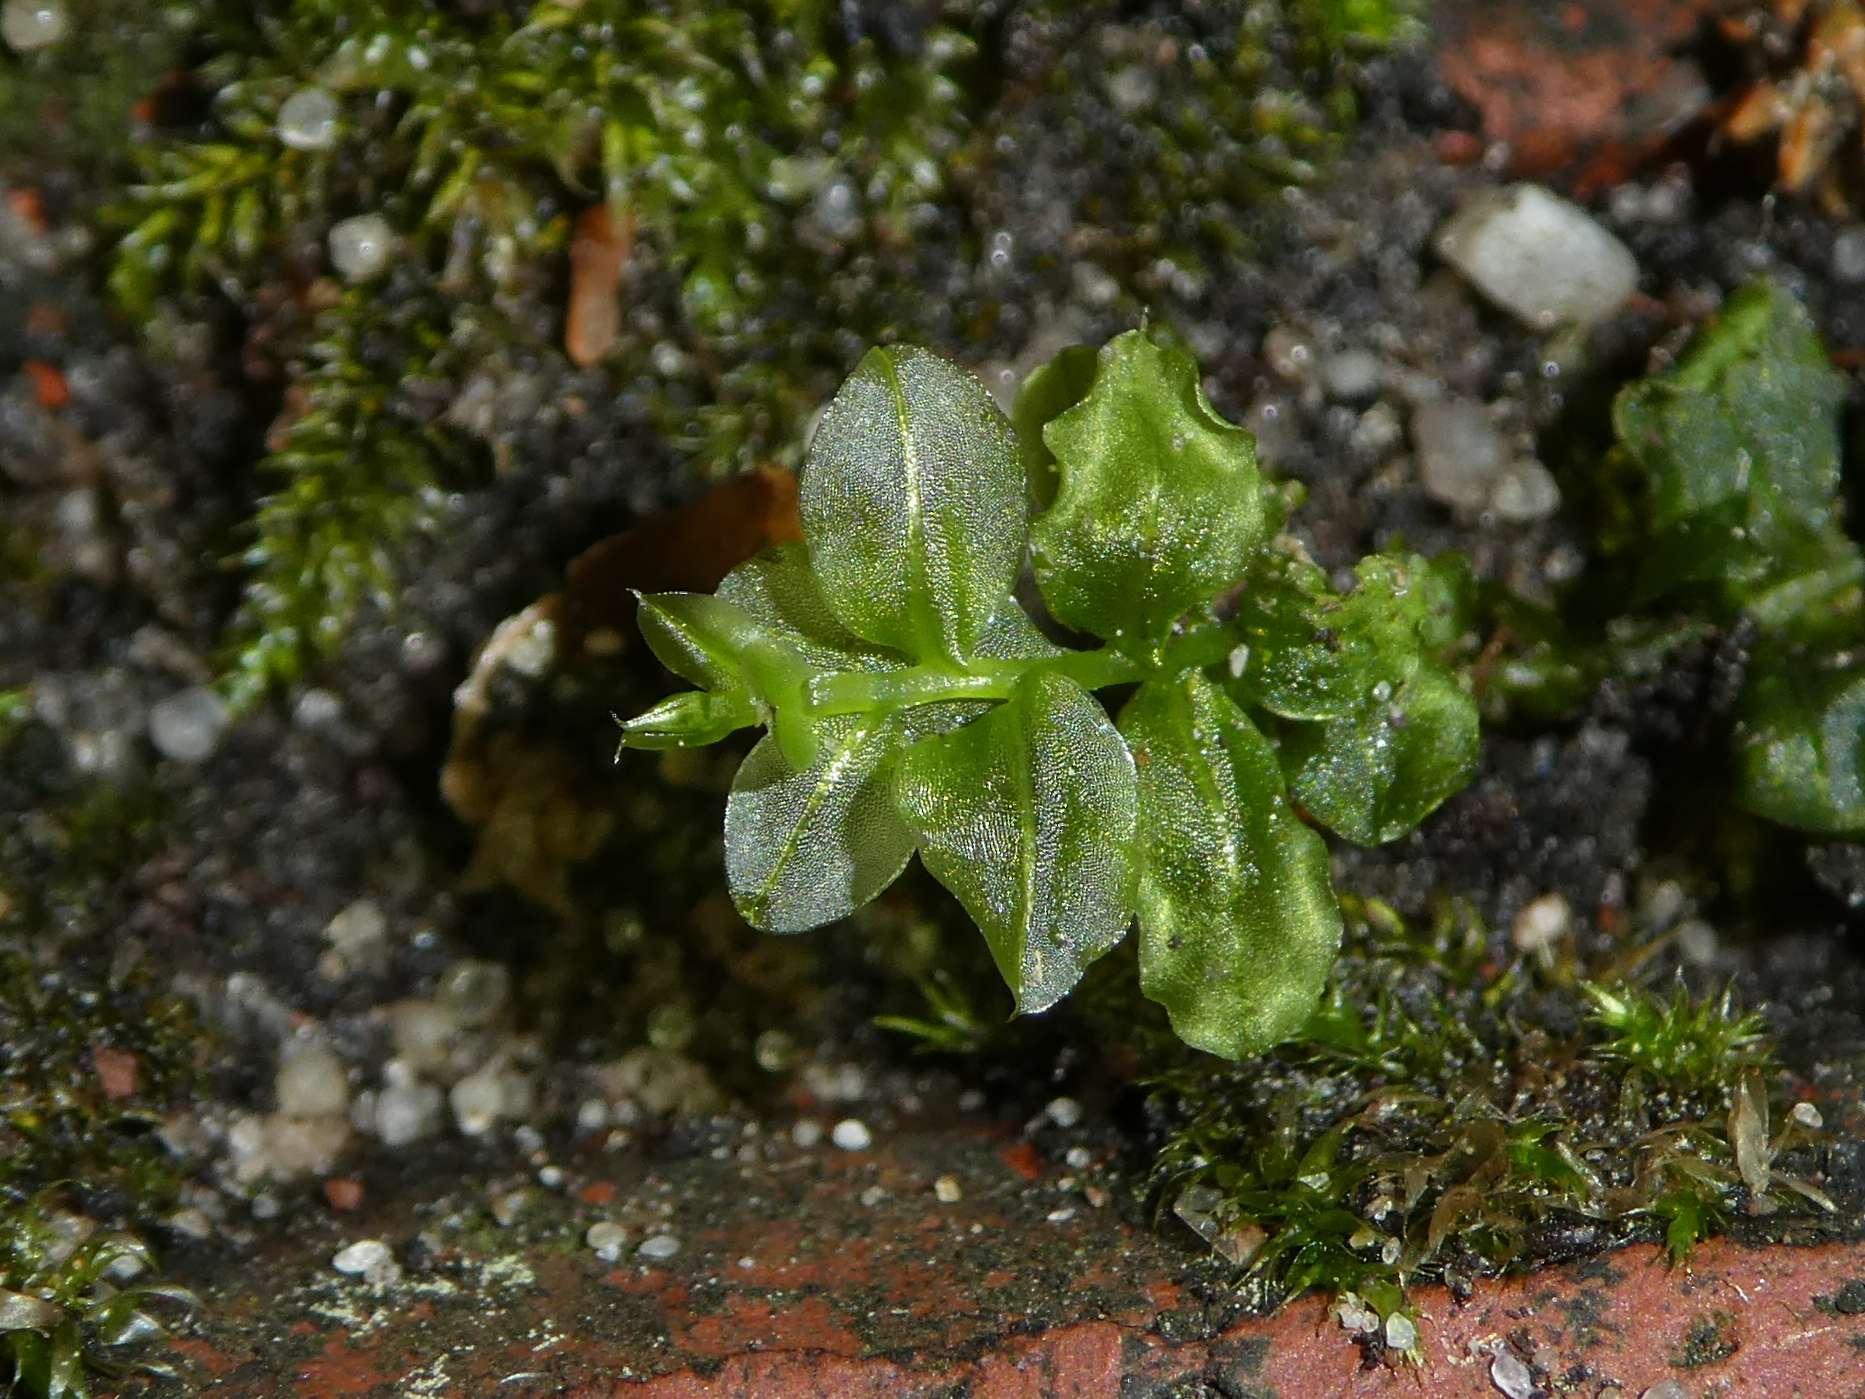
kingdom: Plantae
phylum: Bryophyta
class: Bryopsida
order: Bryales
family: Mniaceae
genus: Plagiomnium
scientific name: Plagiomnium cuspidatum
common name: Woodsy leafy moss
